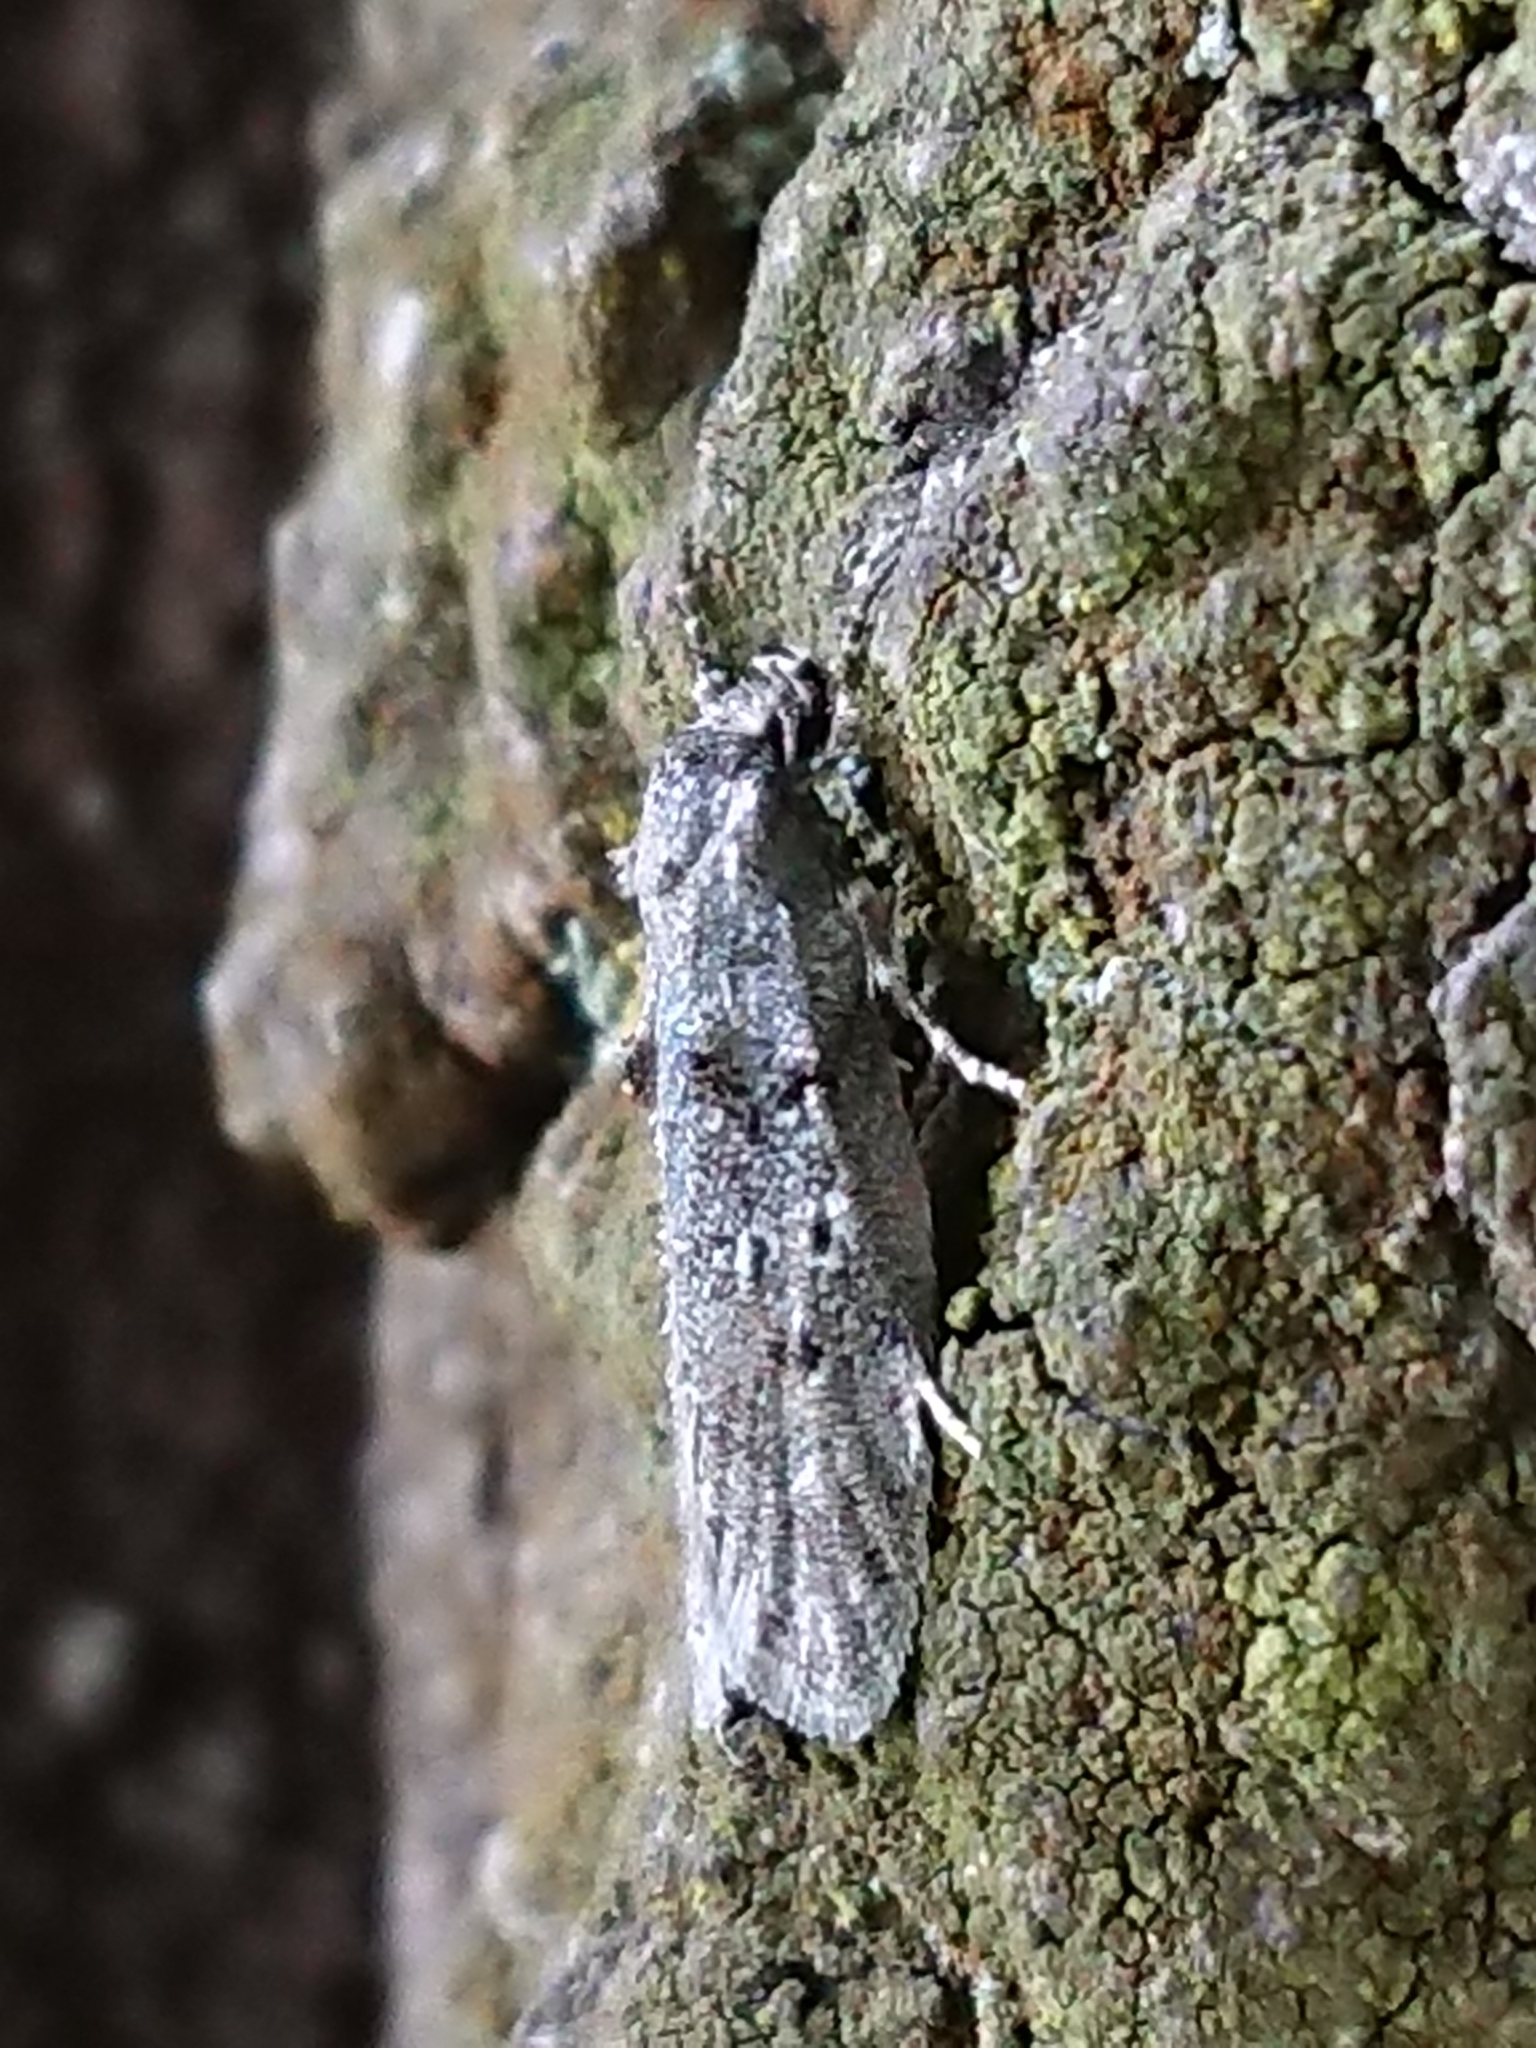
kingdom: Animalia
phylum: Arthropoda
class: Insecta
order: Lepidoptera
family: Oecophoridae
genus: Izatha
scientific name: Izatha convulsella
